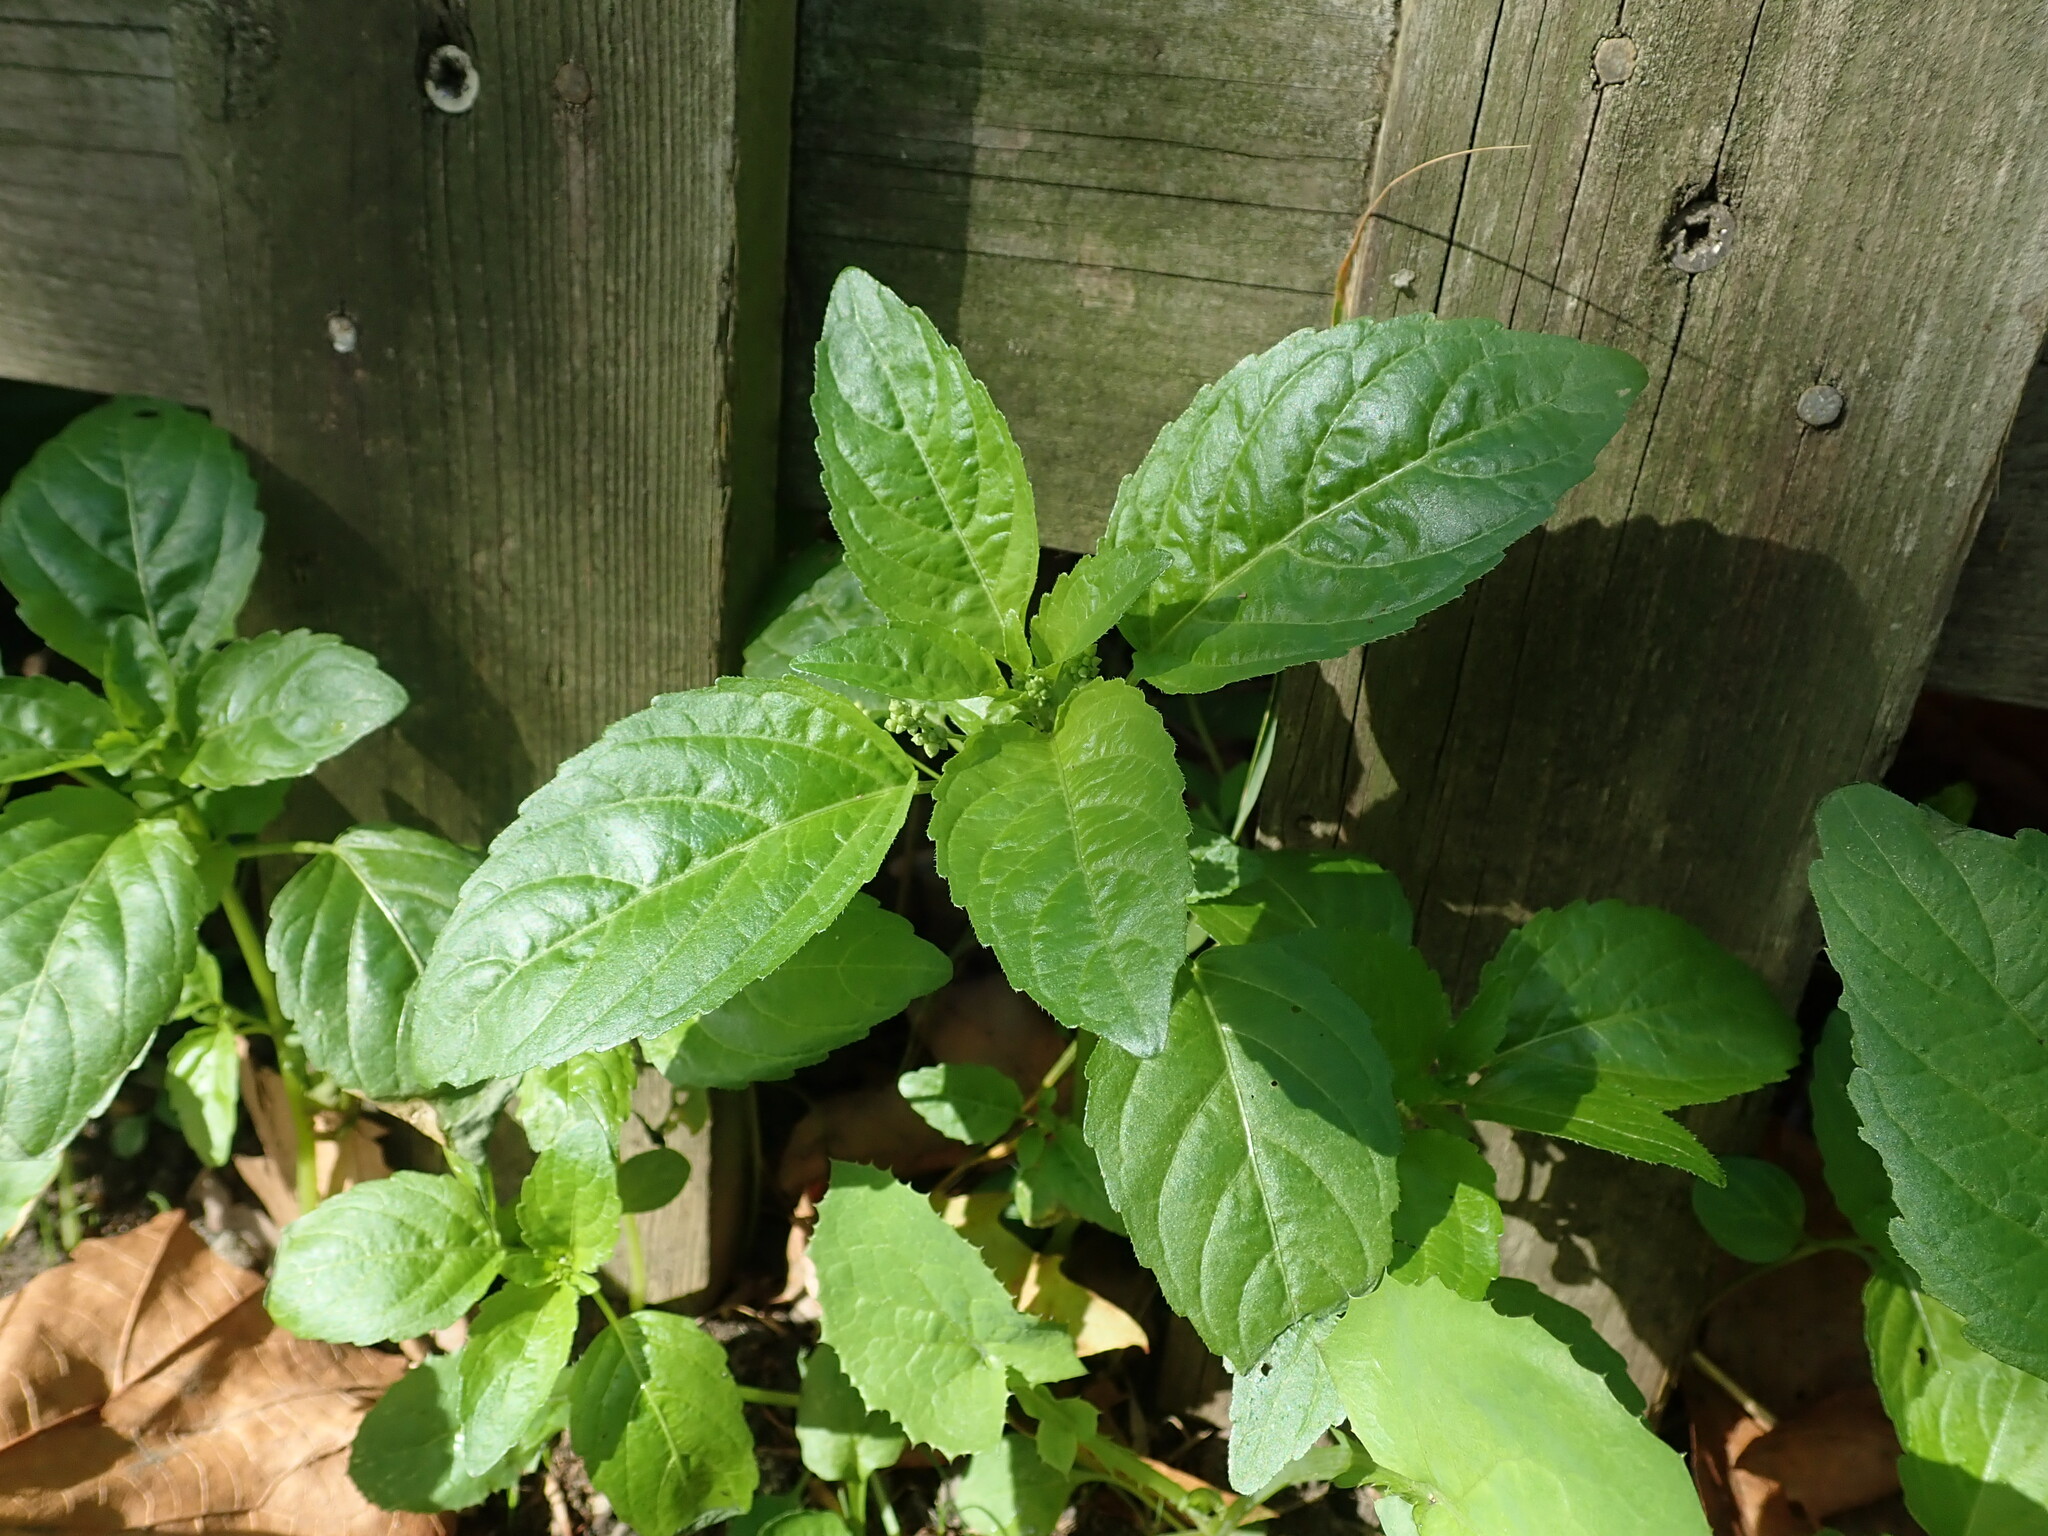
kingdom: Plantae
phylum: Tracheophyta
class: Magnoliopsida
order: Malpighiales
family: Euphorbiaceae
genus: Mercurialis
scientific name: Mercurialis annua
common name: Annual mercury
